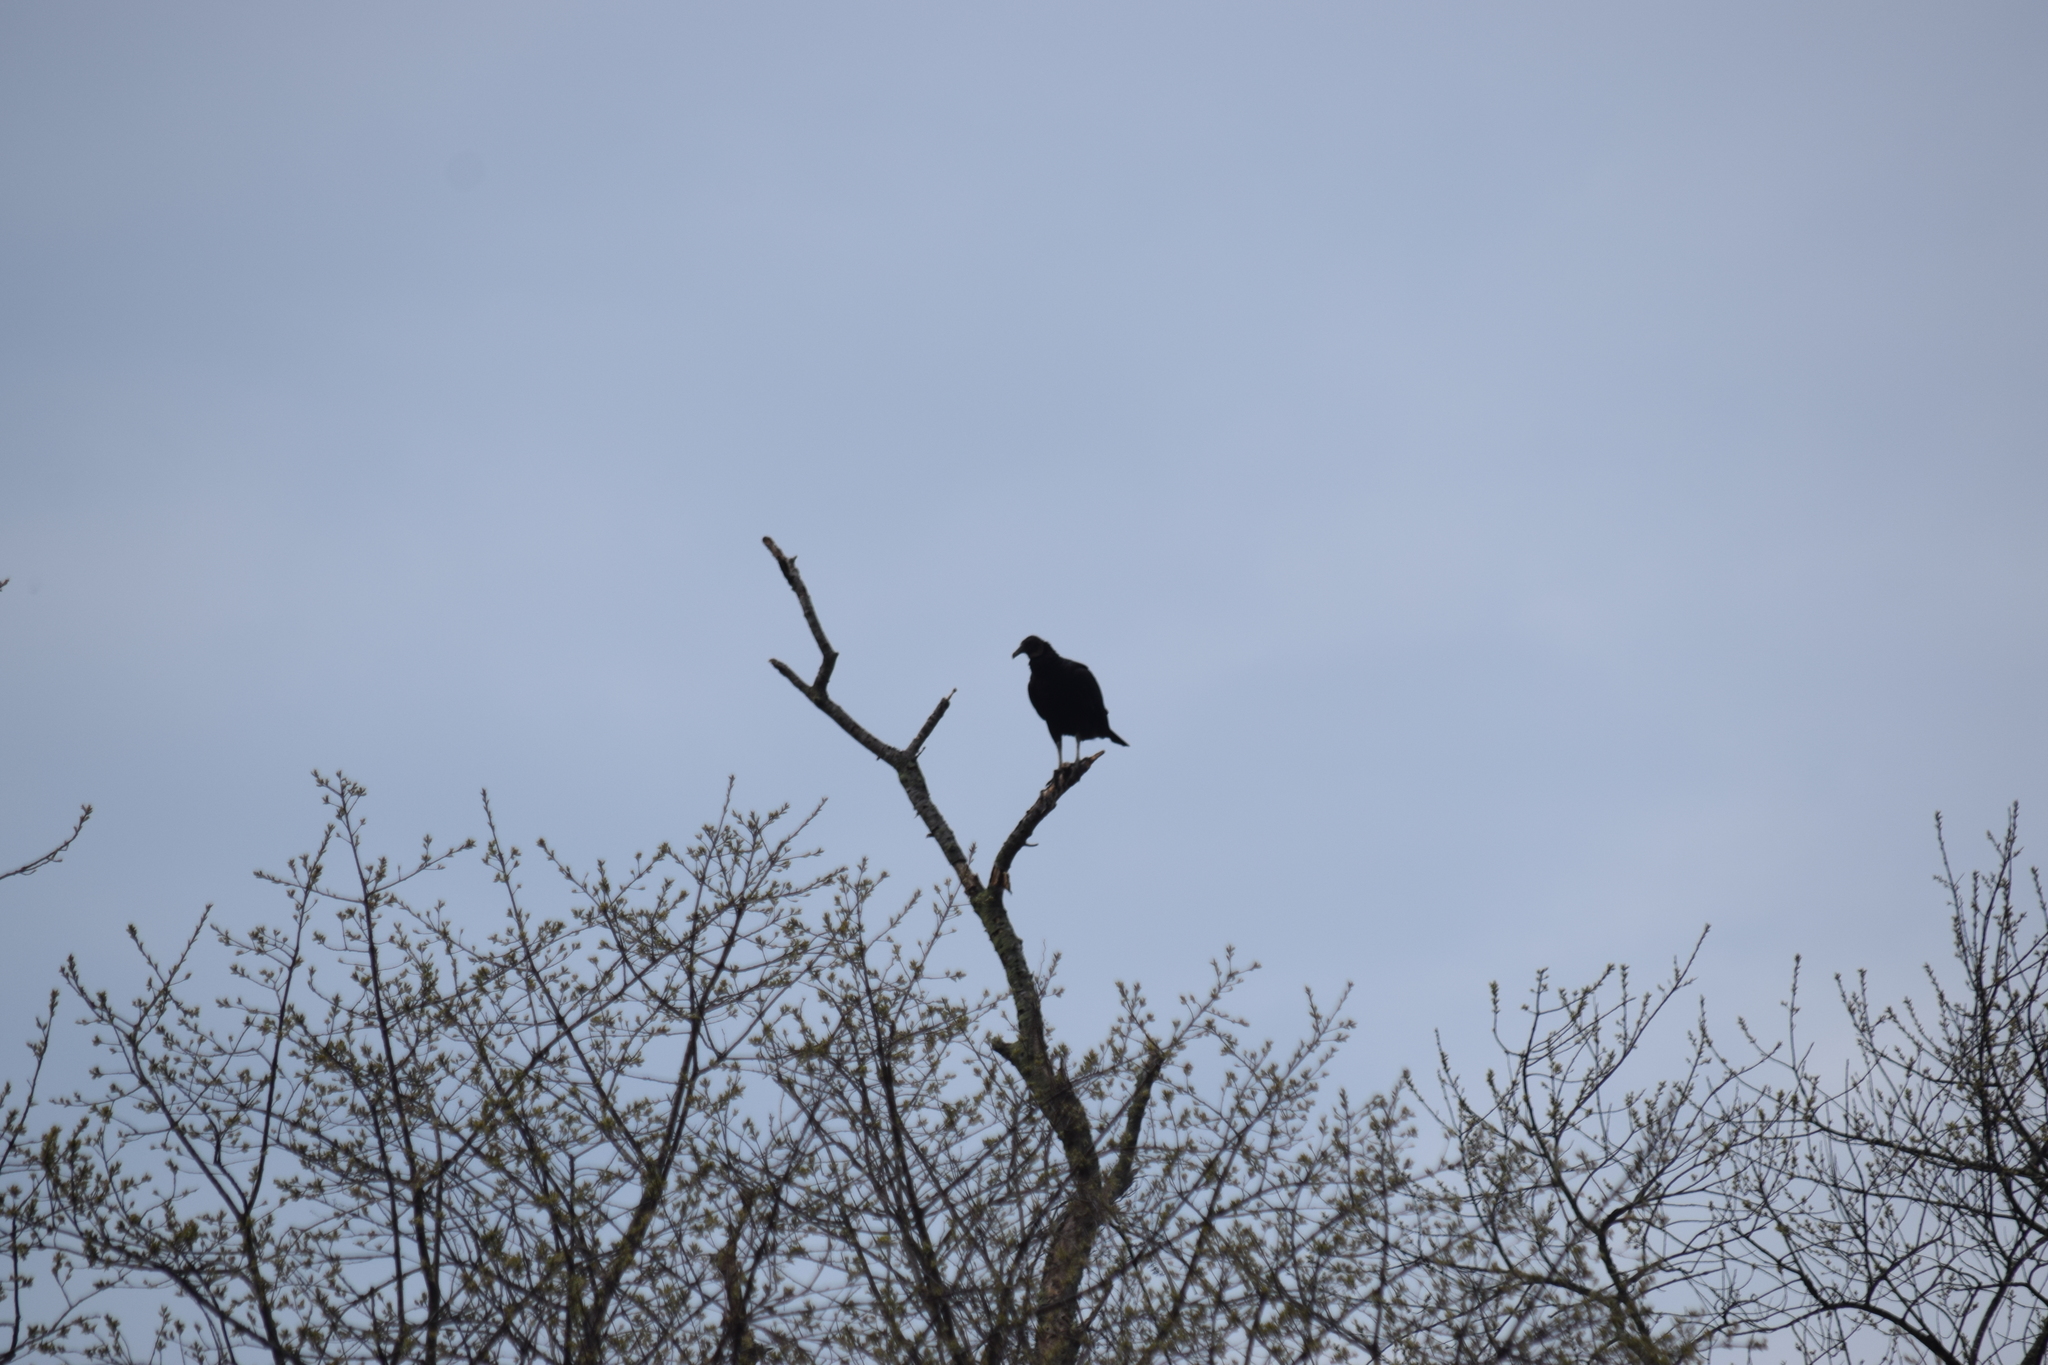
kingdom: Animalia
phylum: Chordata
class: Aves
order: Accipitriformes
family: Cathartidae
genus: Coragyps
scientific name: Coragyps atratus
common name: Black vulture
